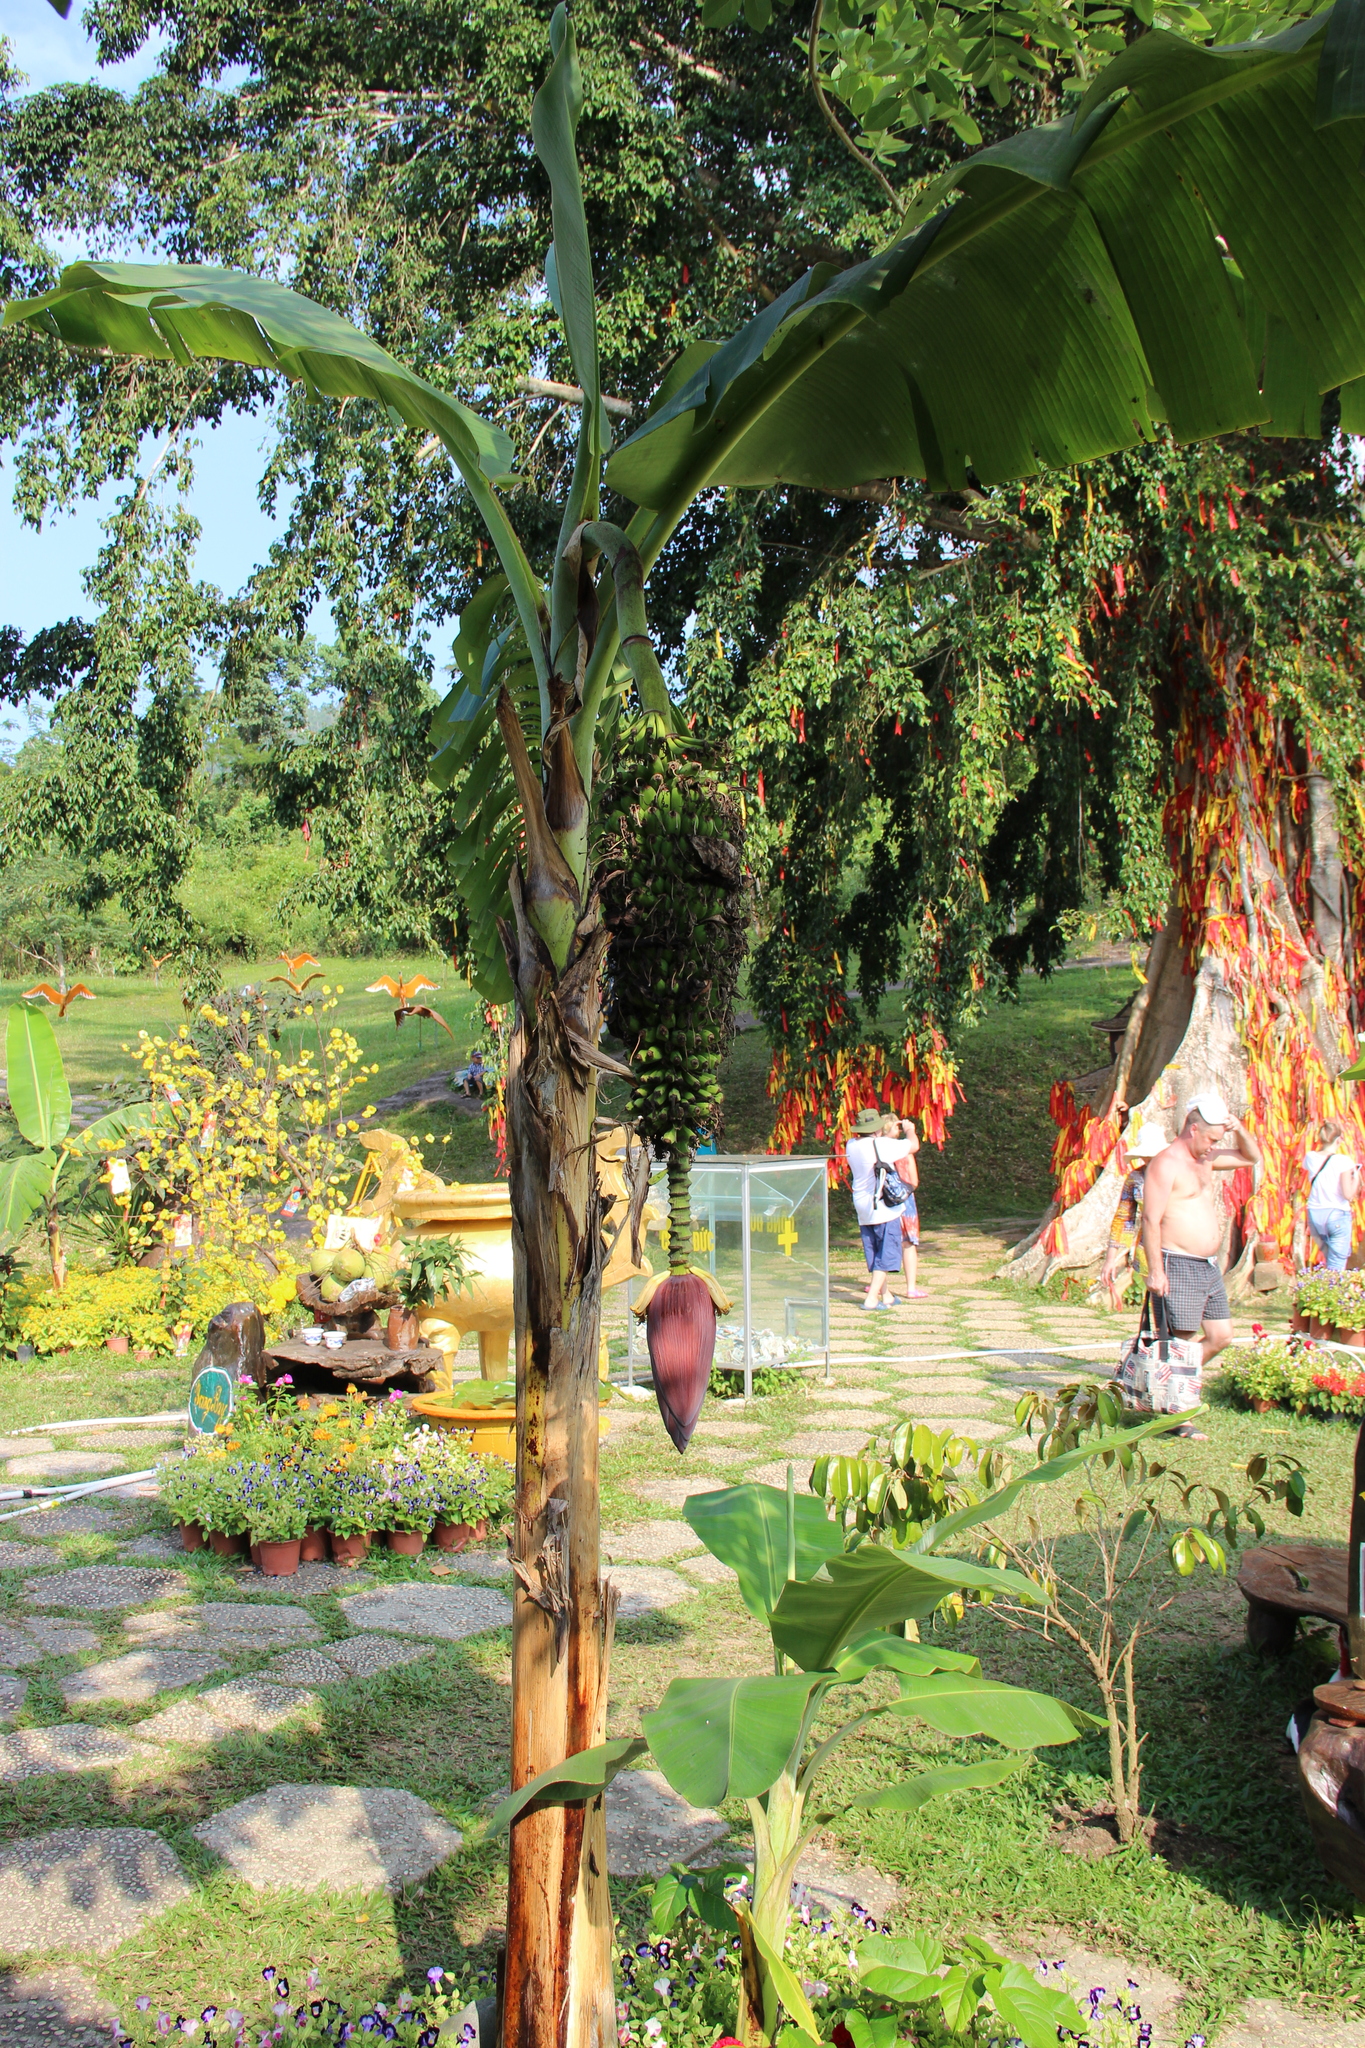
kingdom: Plantae
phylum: Tracheophyta
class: Liliopsida
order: Zingiberales
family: Musaceae
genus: Musa
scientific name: Musa paradisiaca
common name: French plantain
